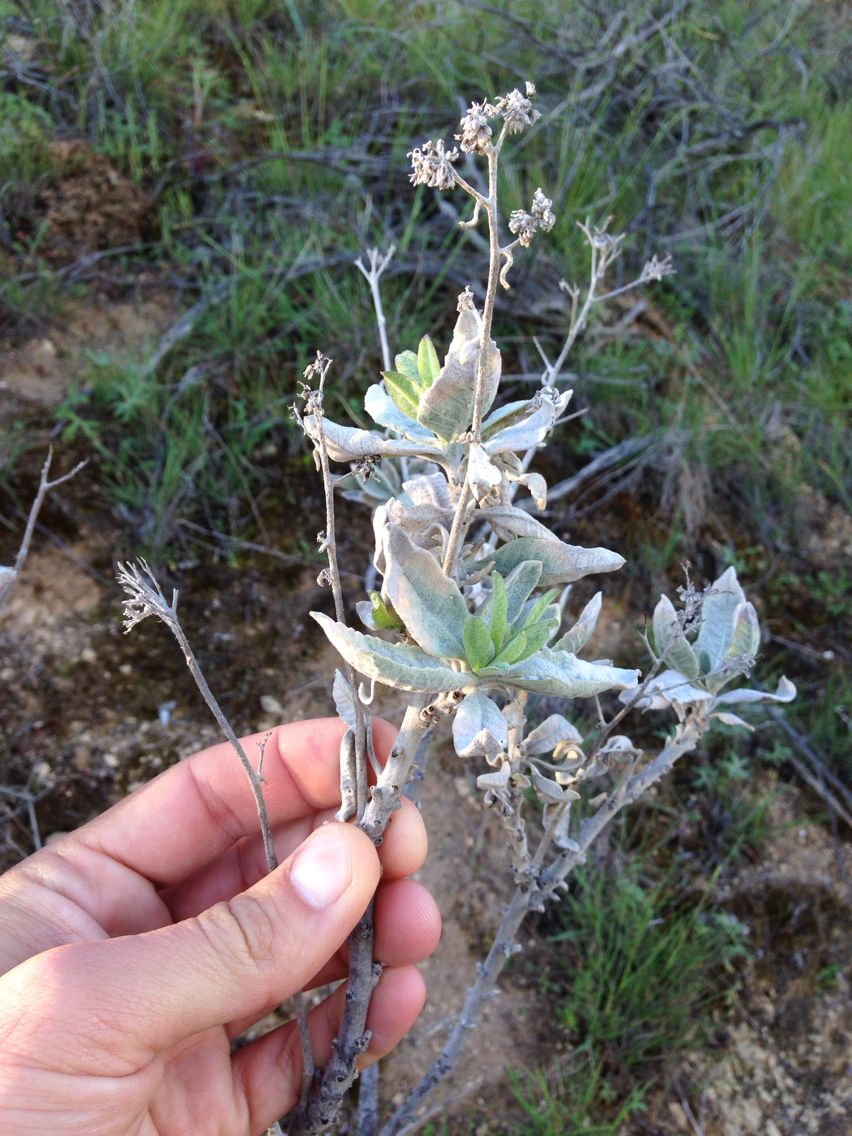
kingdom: Plantae
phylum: Tracheophyta
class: Magnoliopsida
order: Boraginales
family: Namaceae
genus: Eriodictyon
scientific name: Eriodictyon tomentosum
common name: Woolly yerba-santa
